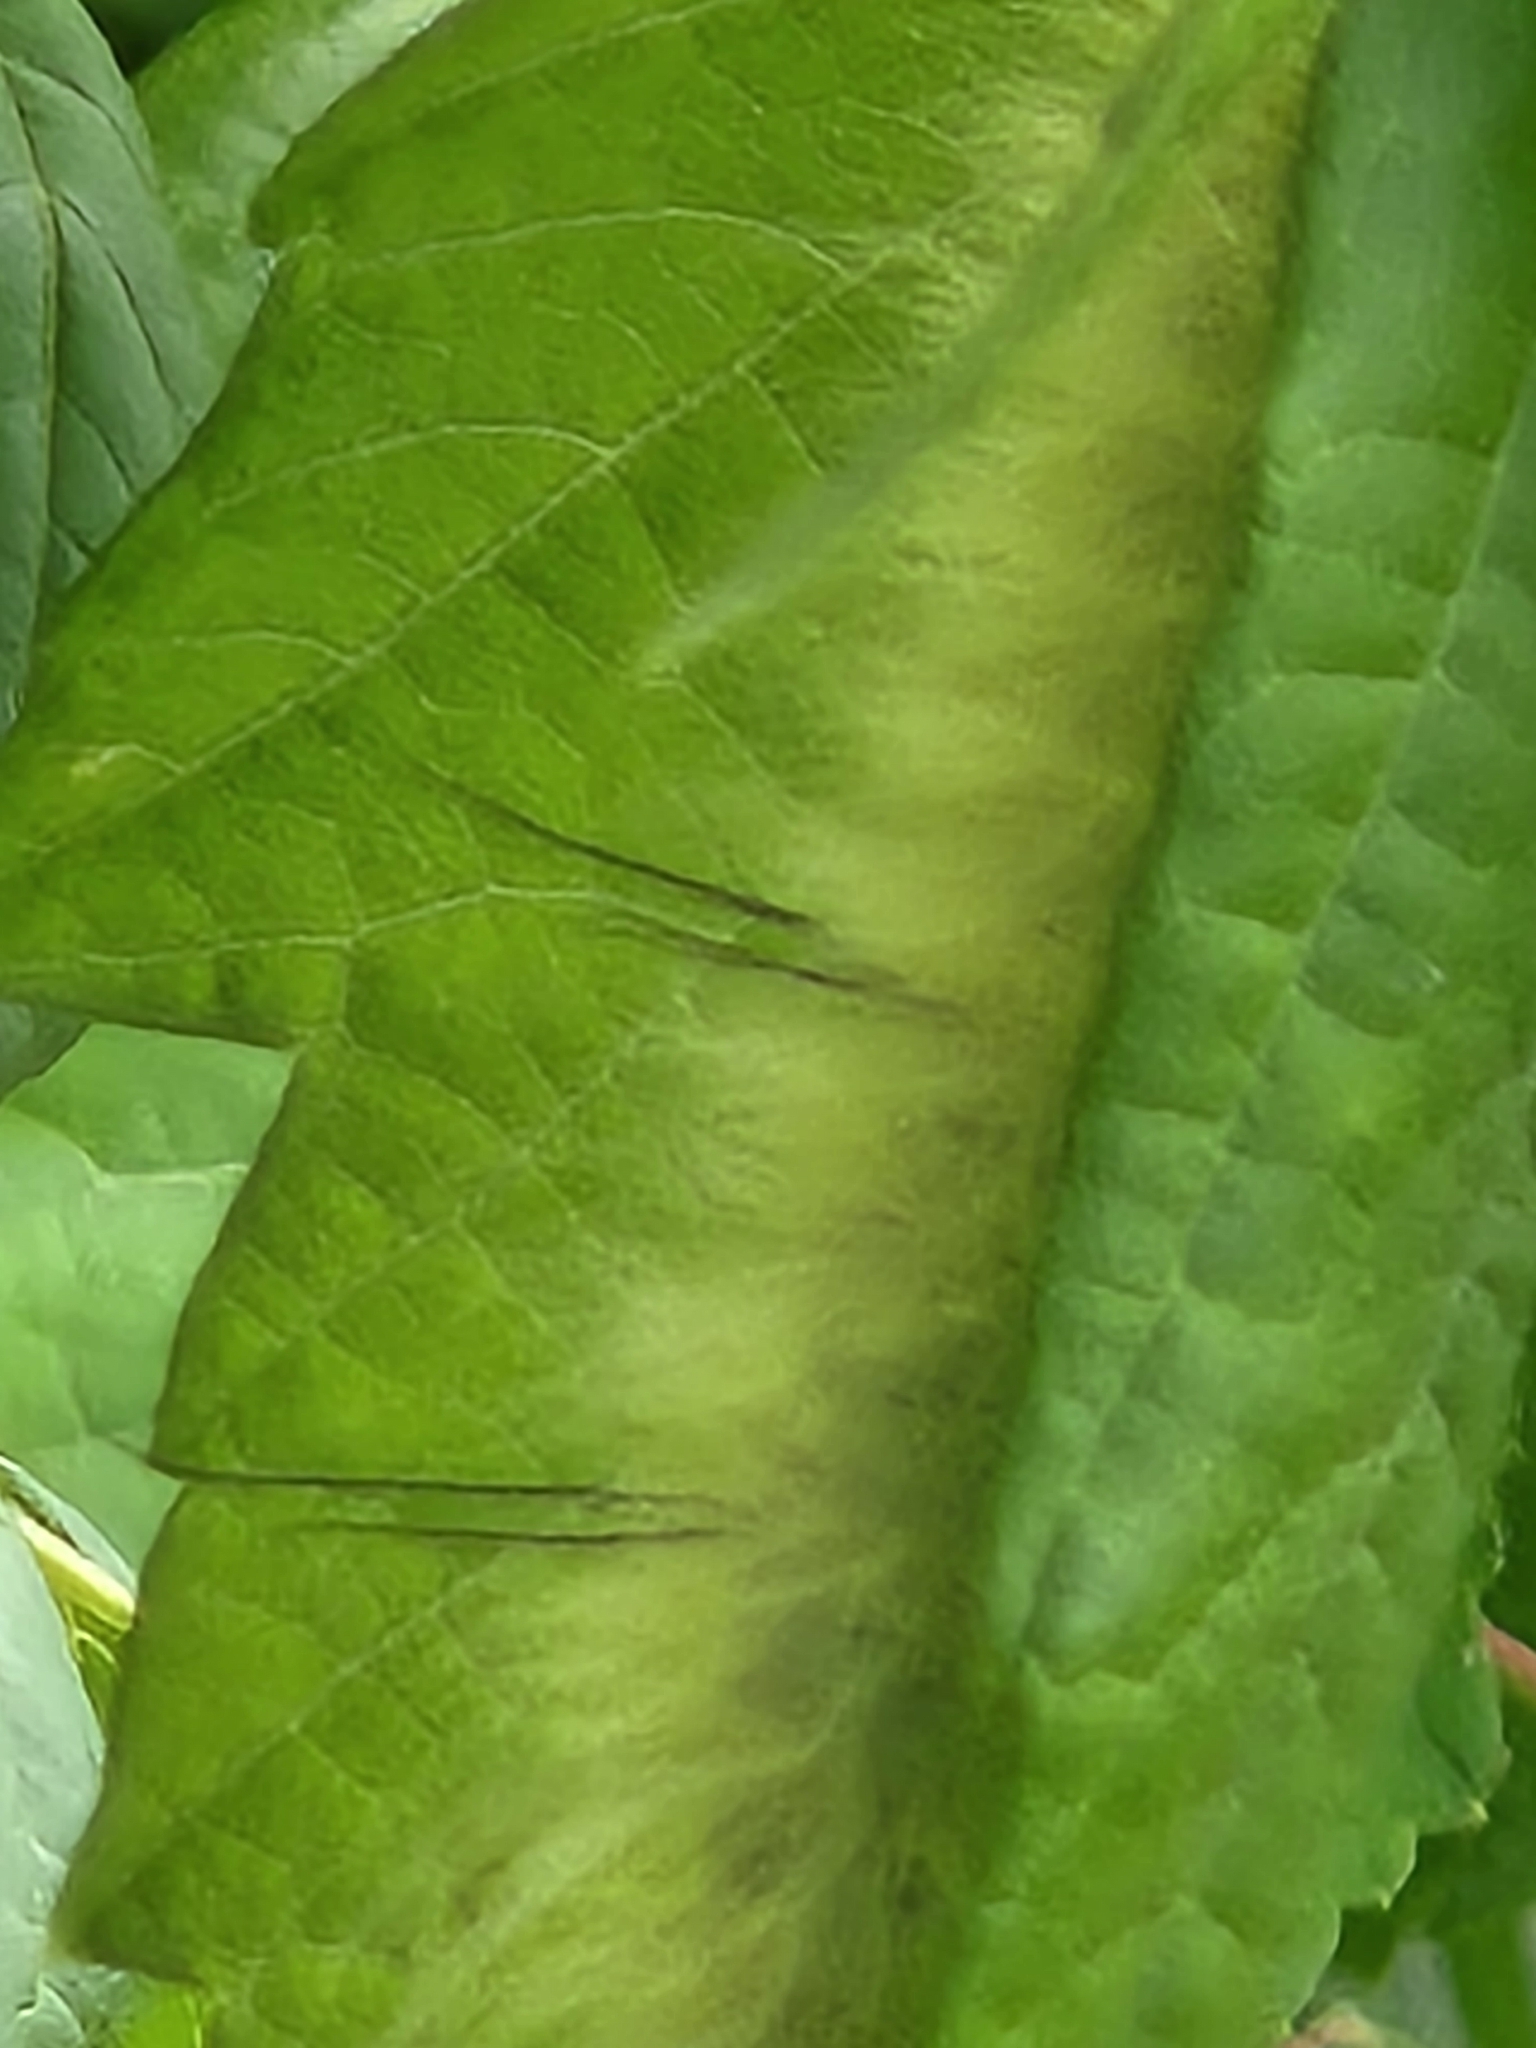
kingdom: Animalia
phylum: Arthropoda
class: Insecta
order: Lepidoptera
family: Noctuidae
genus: Acronicta
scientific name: Acronicta americana
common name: American dagger
